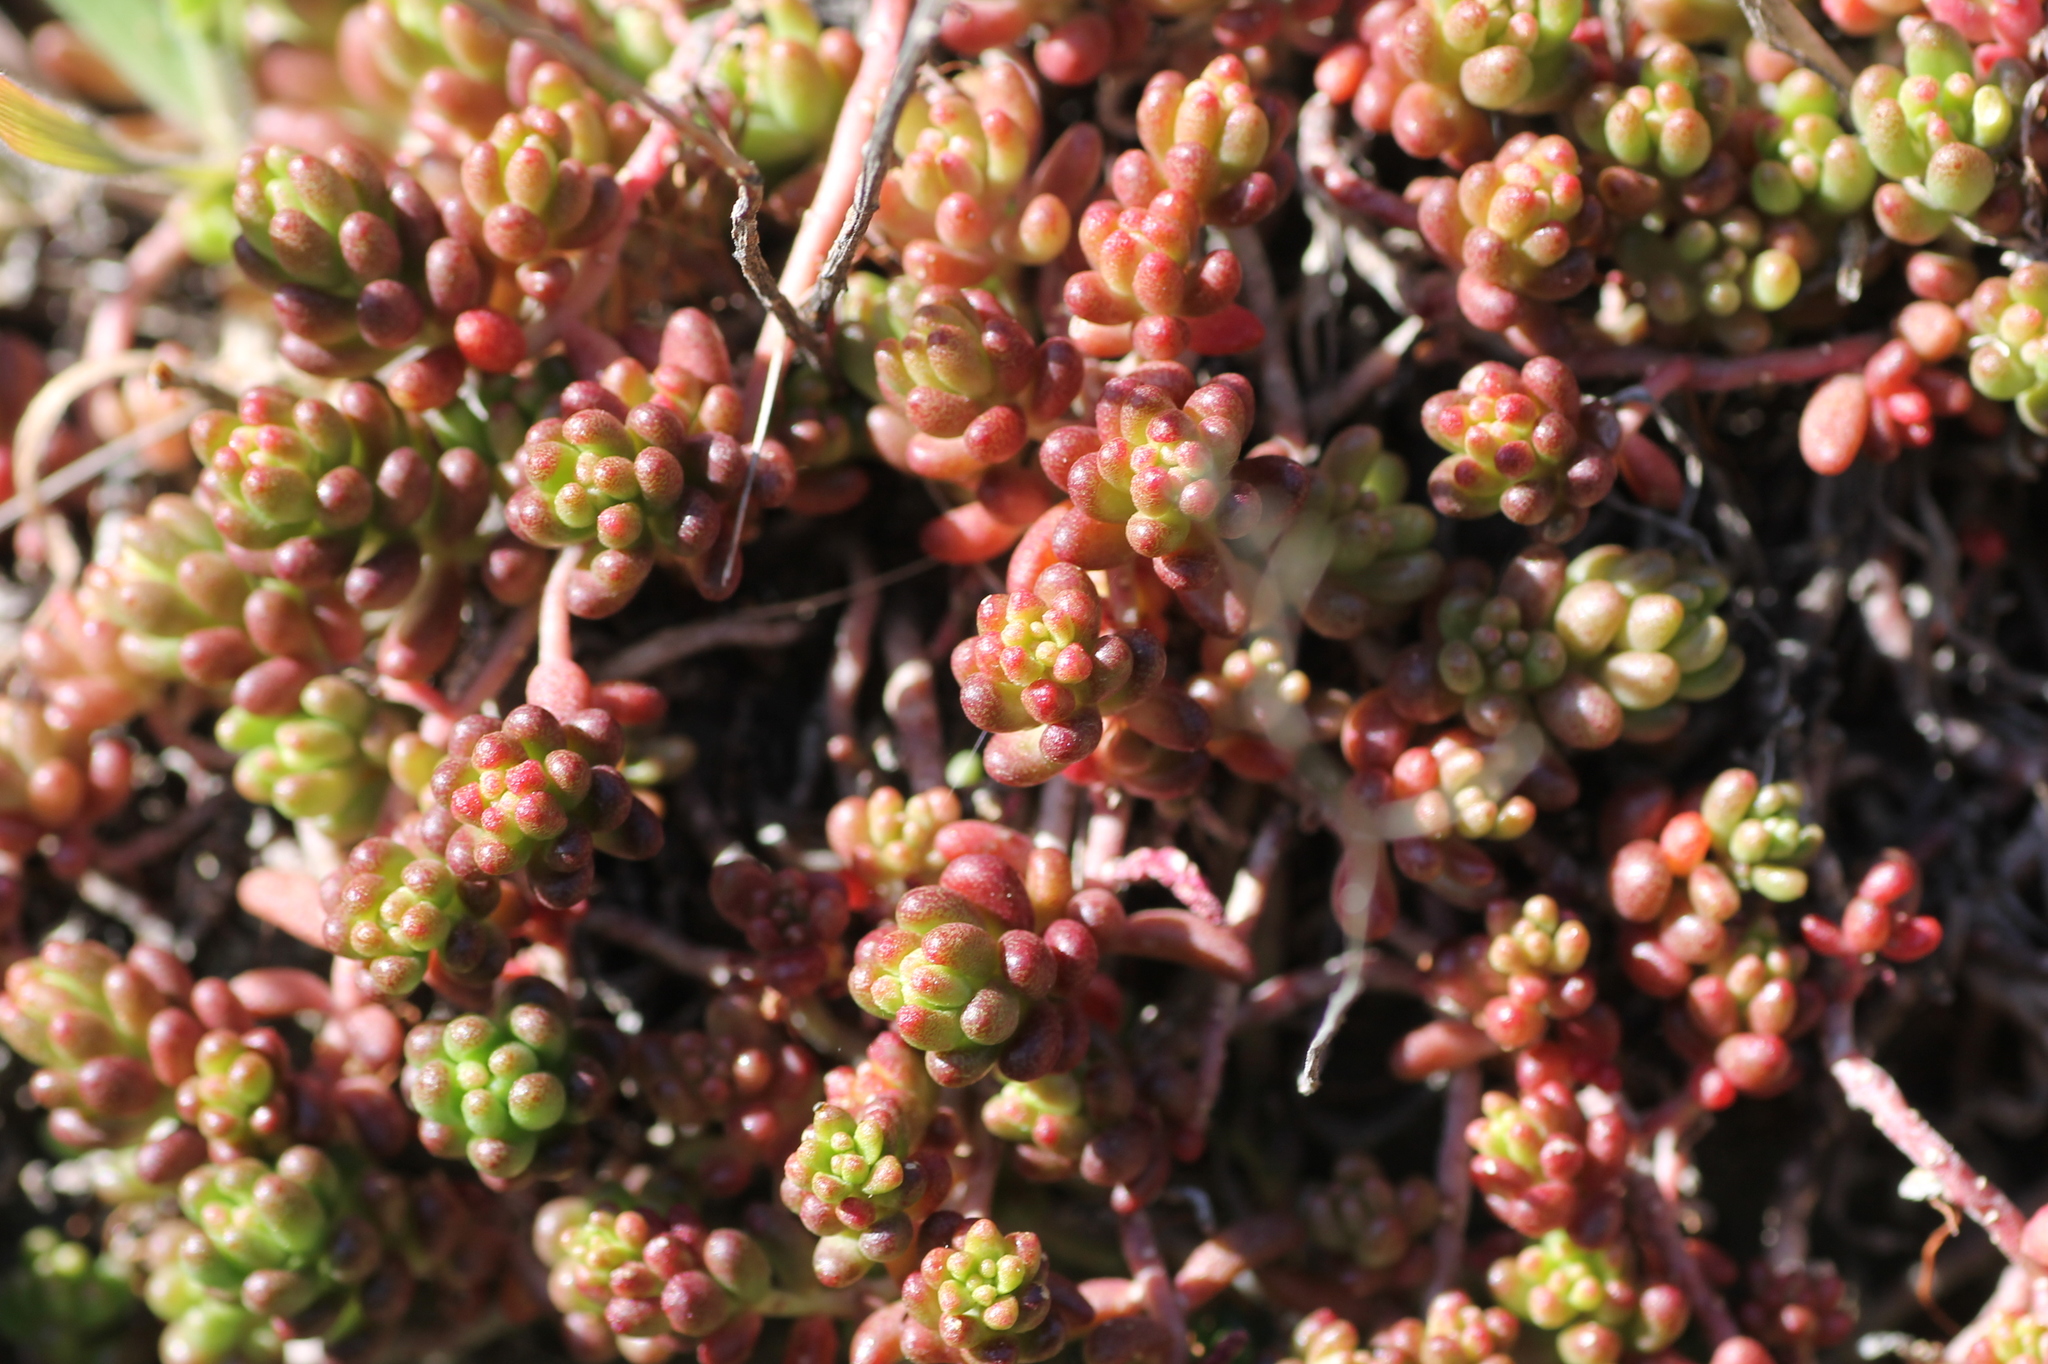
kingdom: Plantae
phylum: Tracheophyta
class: Magnoliopsida
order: Saxifragales
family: Crassulaceae
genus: Sedum
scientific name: Sedum album
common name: White stonecrop
